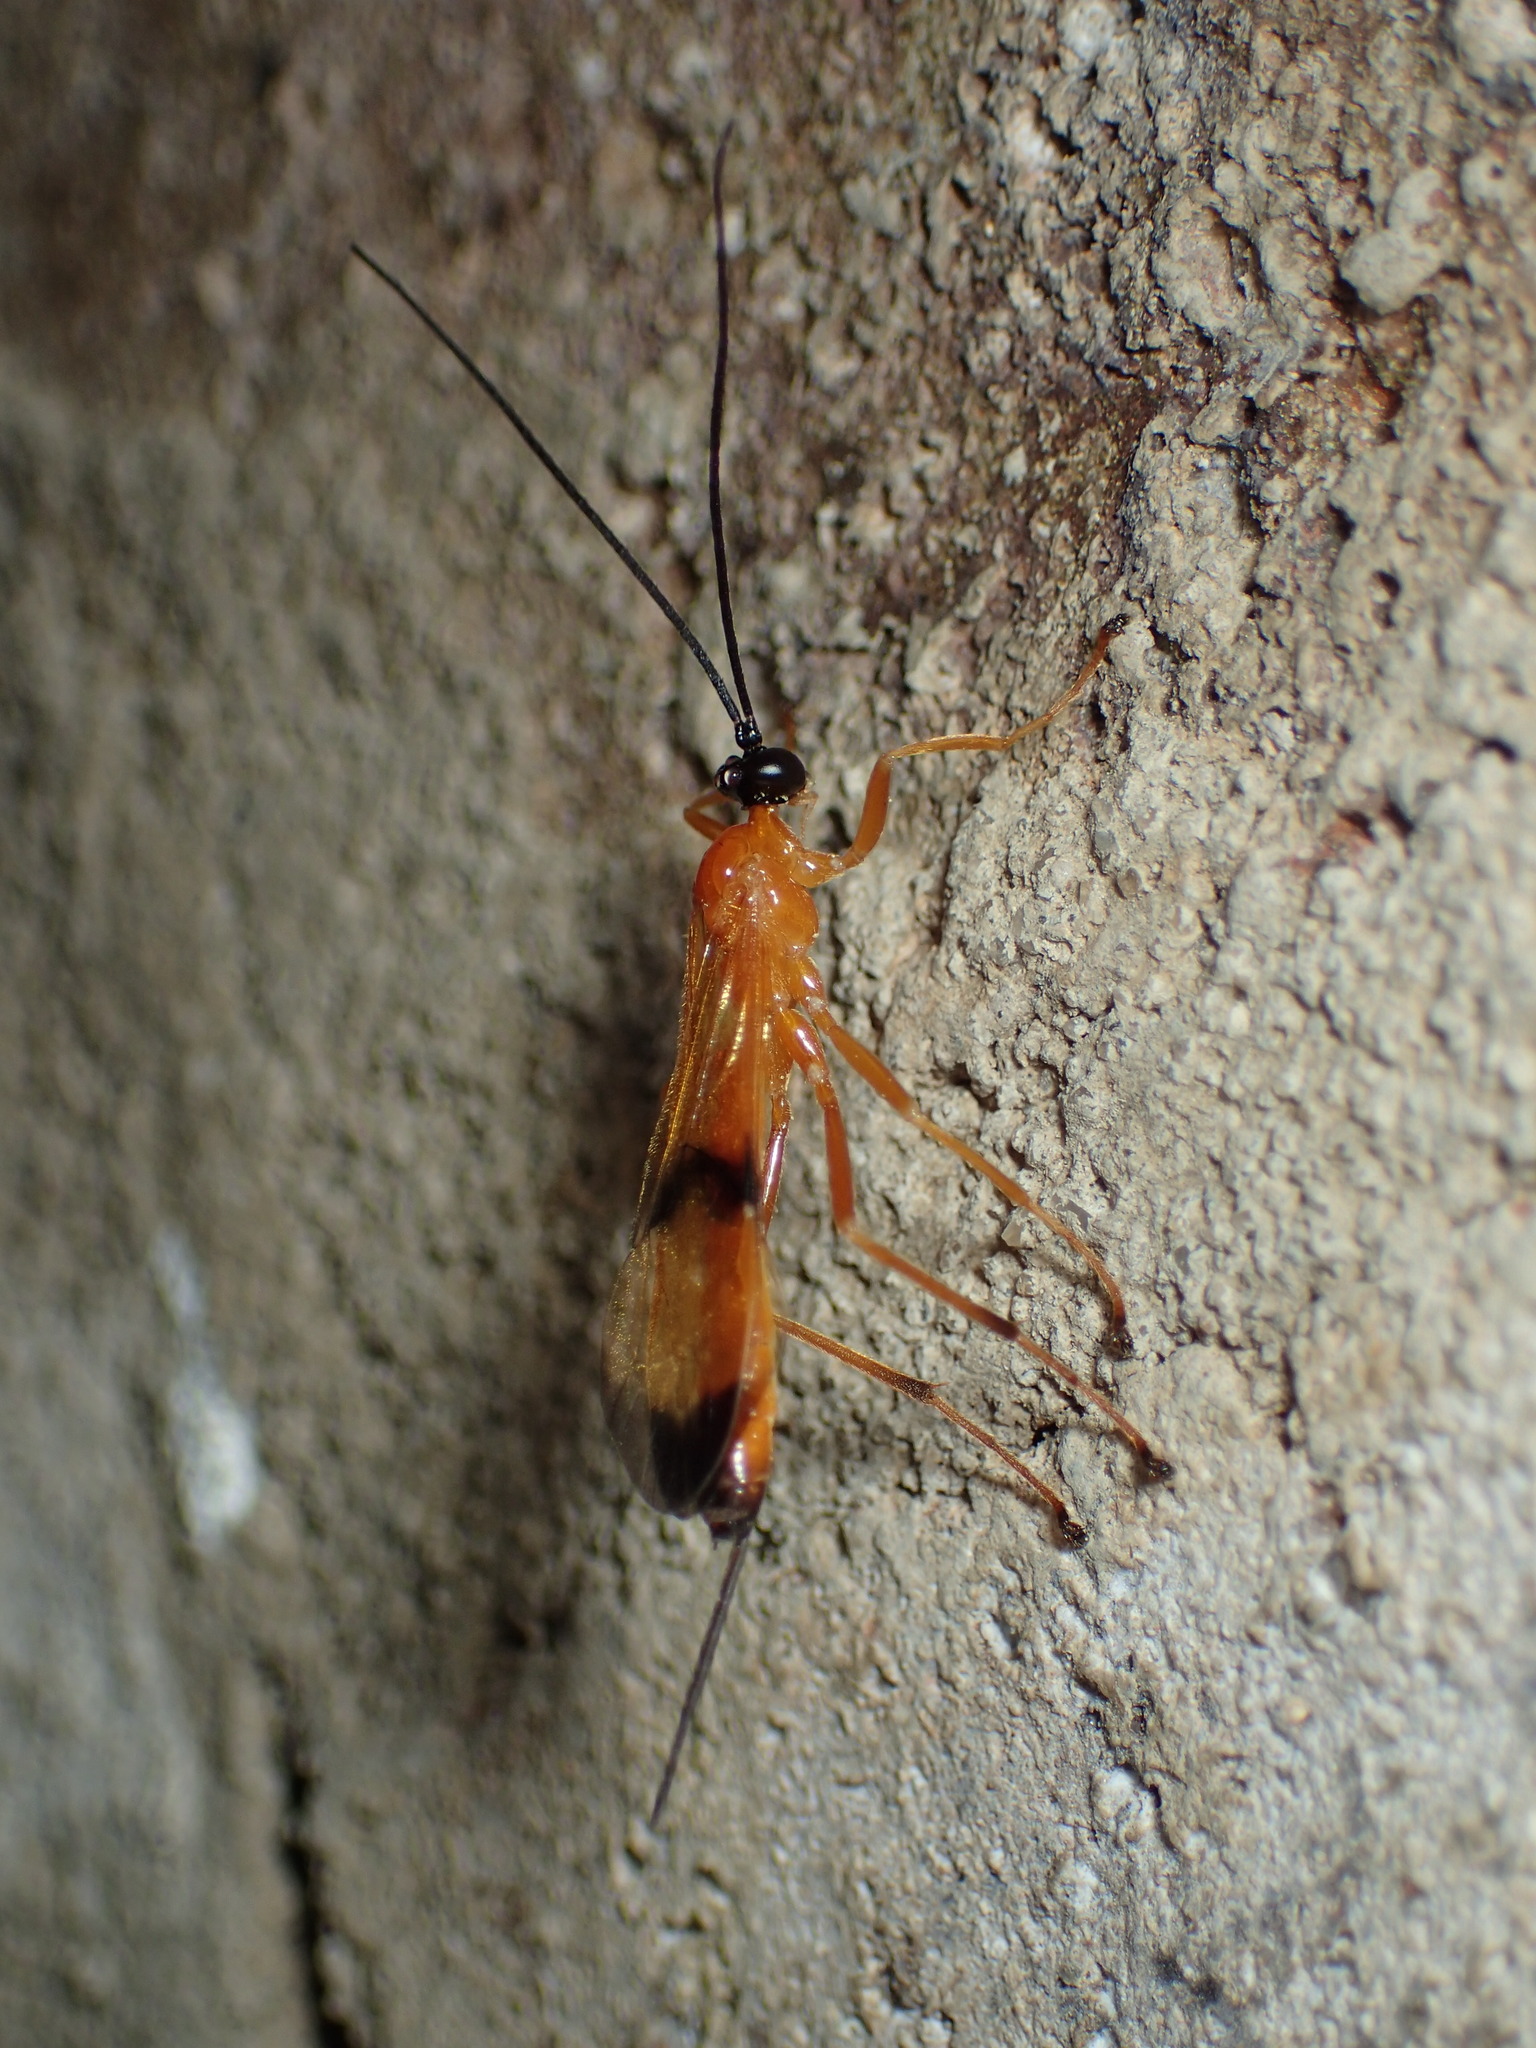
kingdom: Animalia
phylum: Arthropoda
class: Insecta
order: Hymenoptera
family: Ichneumonidae
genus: Acrotaphus
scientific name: Acrotaphus wiltii
